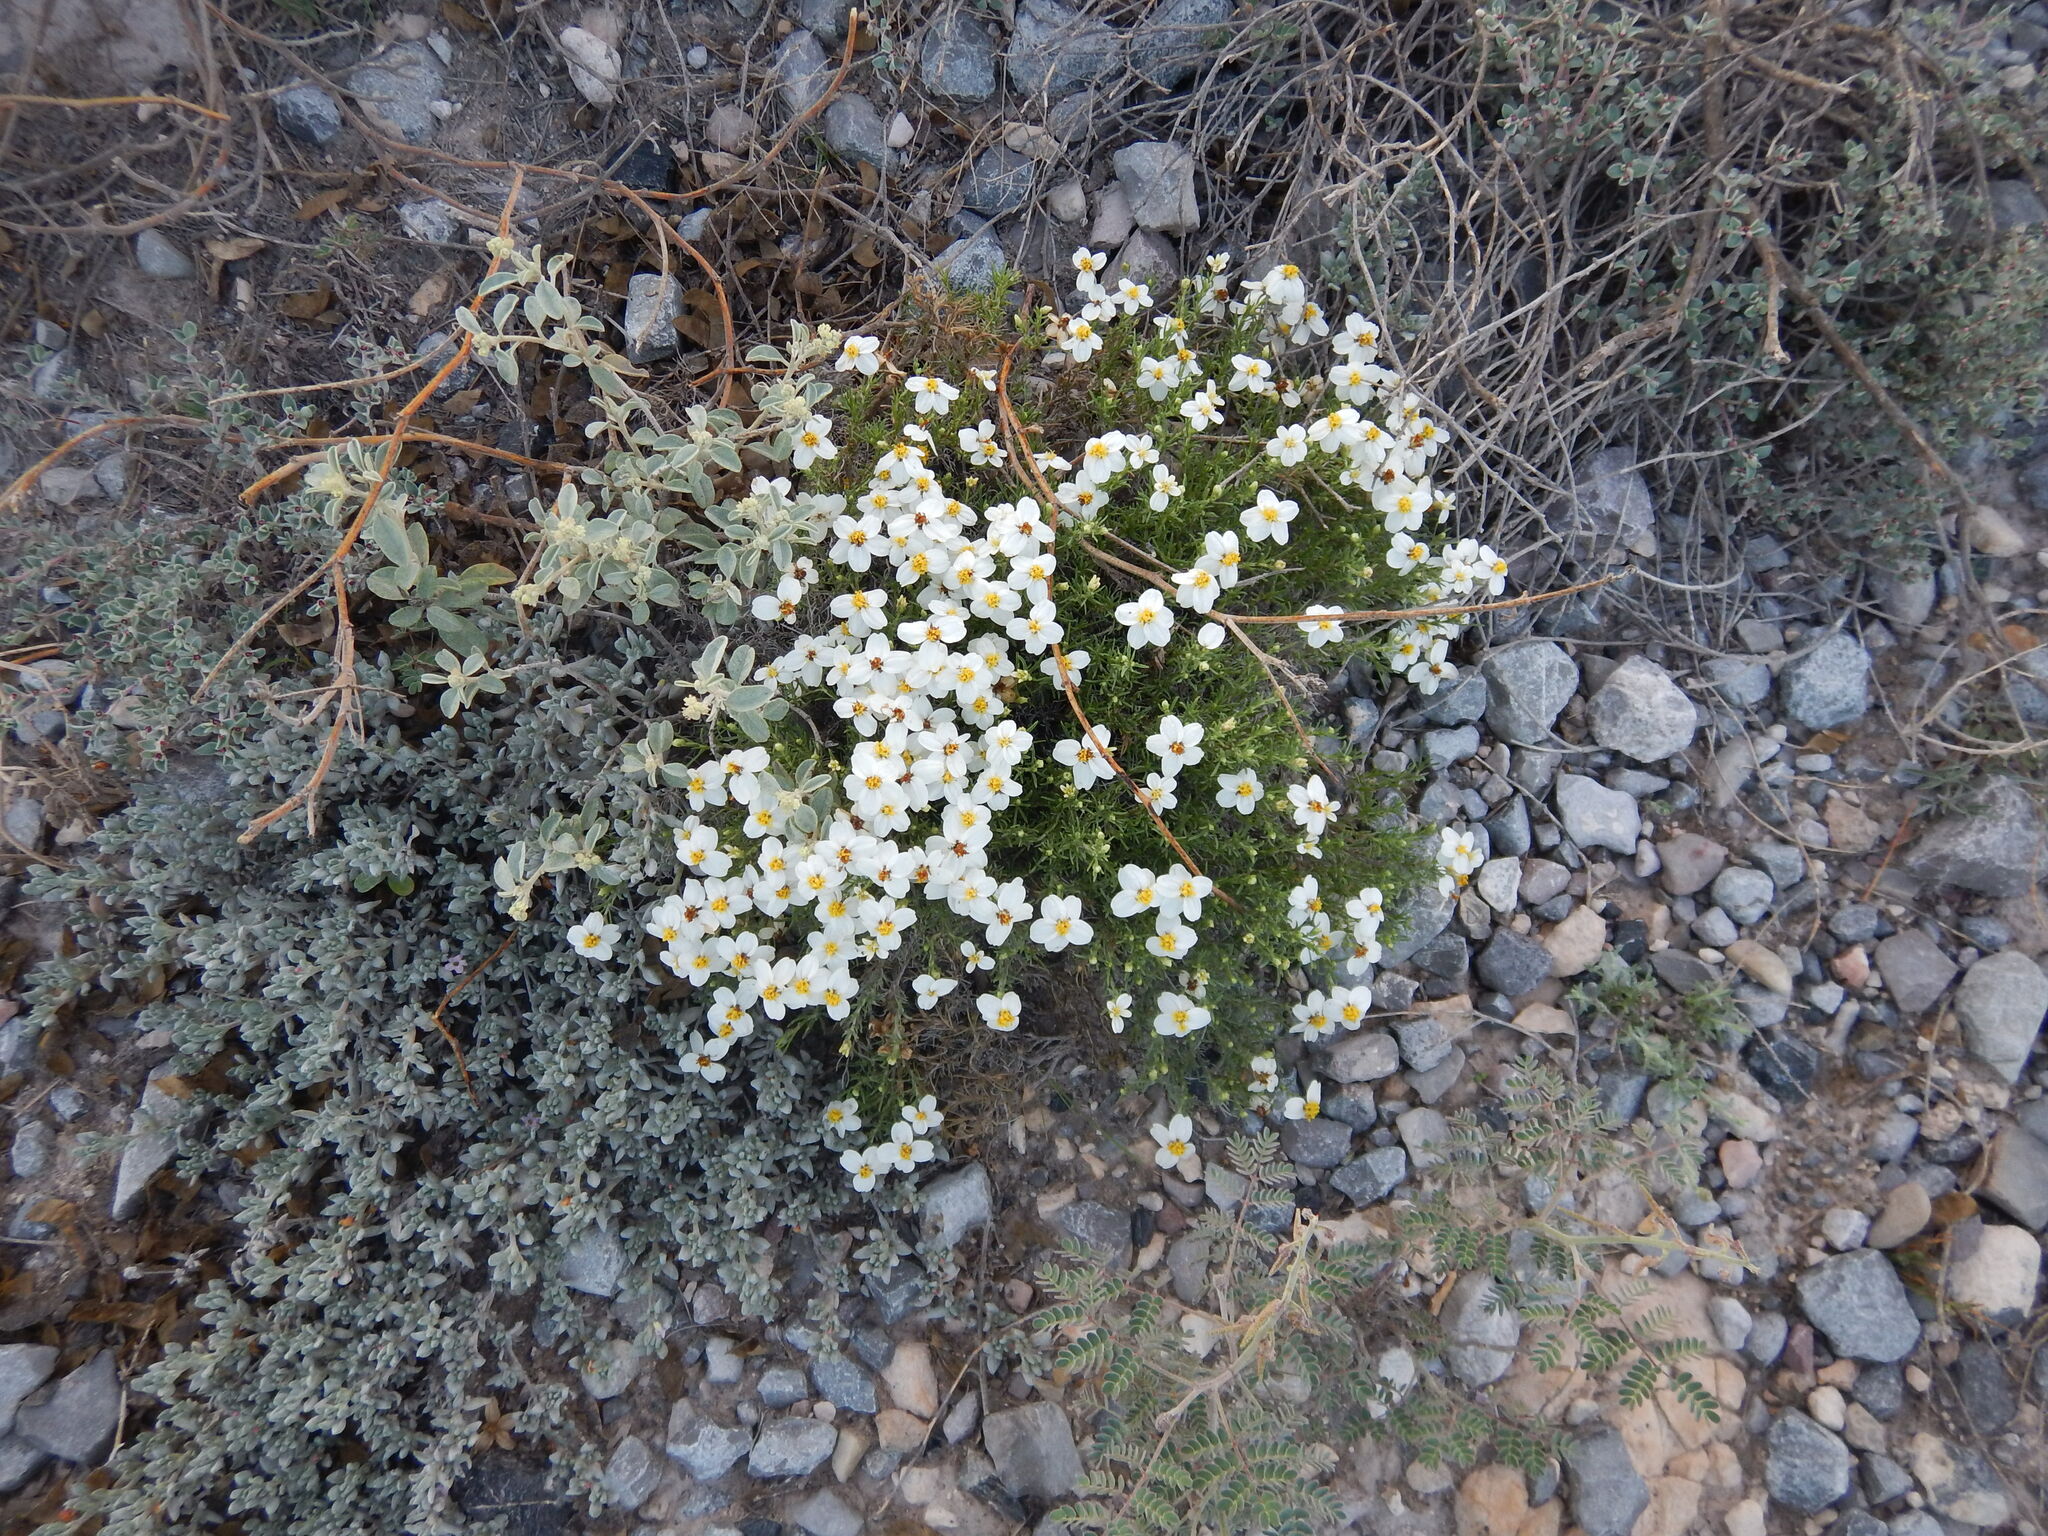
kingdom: Plantae
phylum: Tracheophyta
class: Magnoliopsida
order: Asterales
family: Asteraceae
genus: Zinnia
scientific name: Zinnia acerosa
